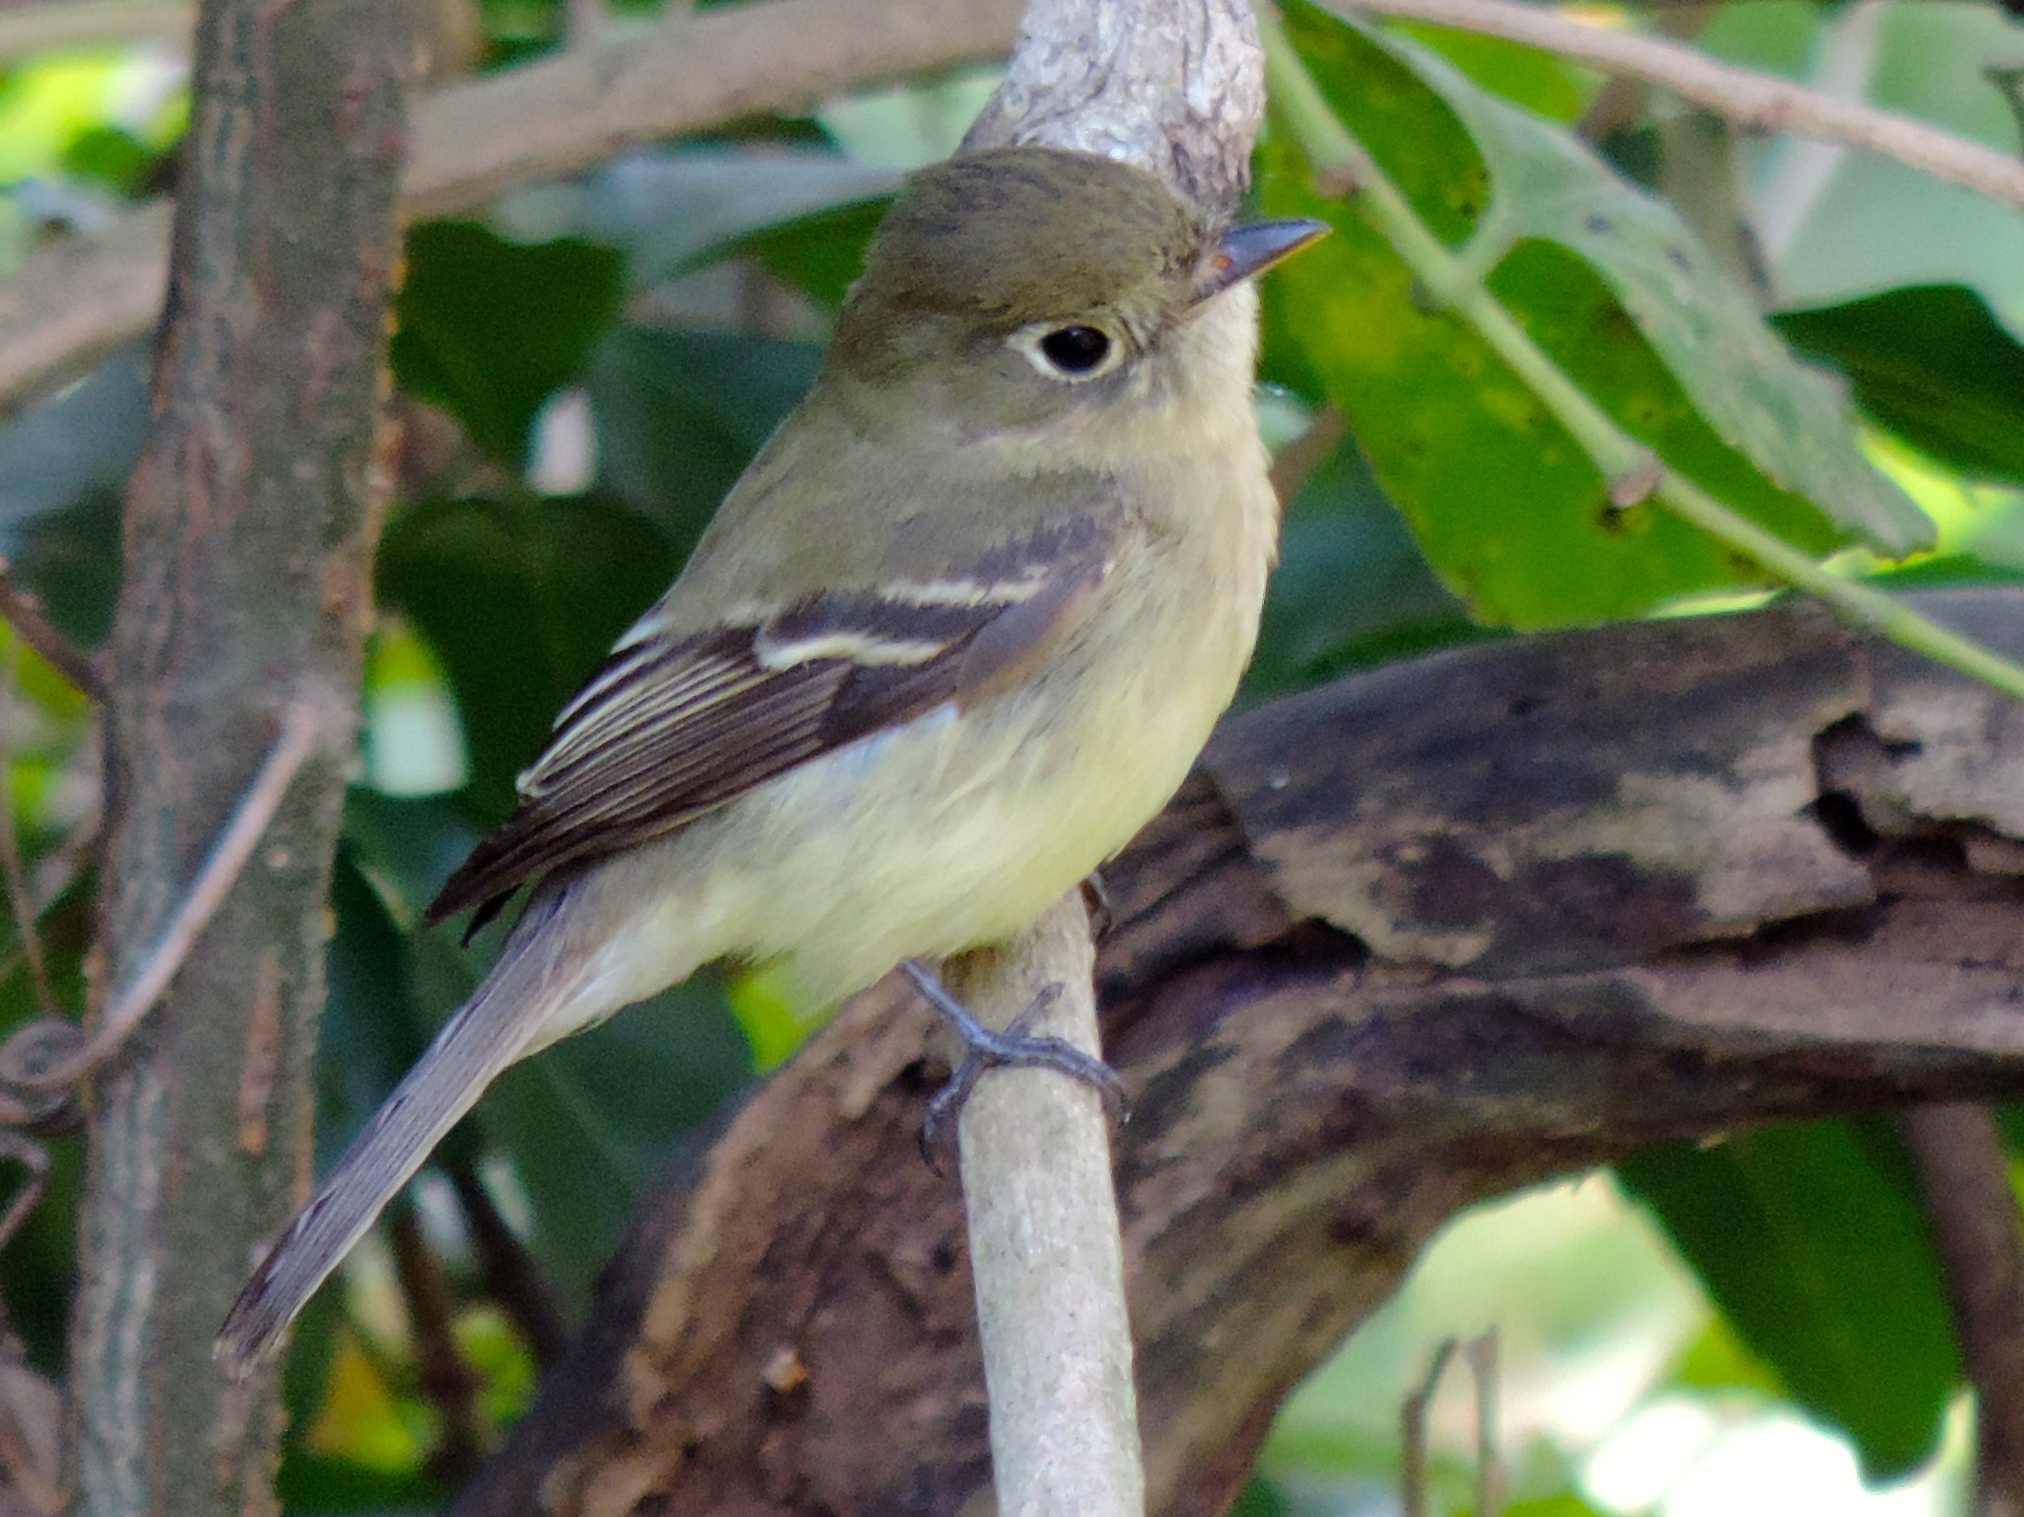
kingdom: Animalia
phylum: Chordata
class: Aves
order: Passeriformes
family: Tyrannidae
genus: Empidonax
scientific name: Empidonax difficilis
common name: Pacific-slope flycatcher
